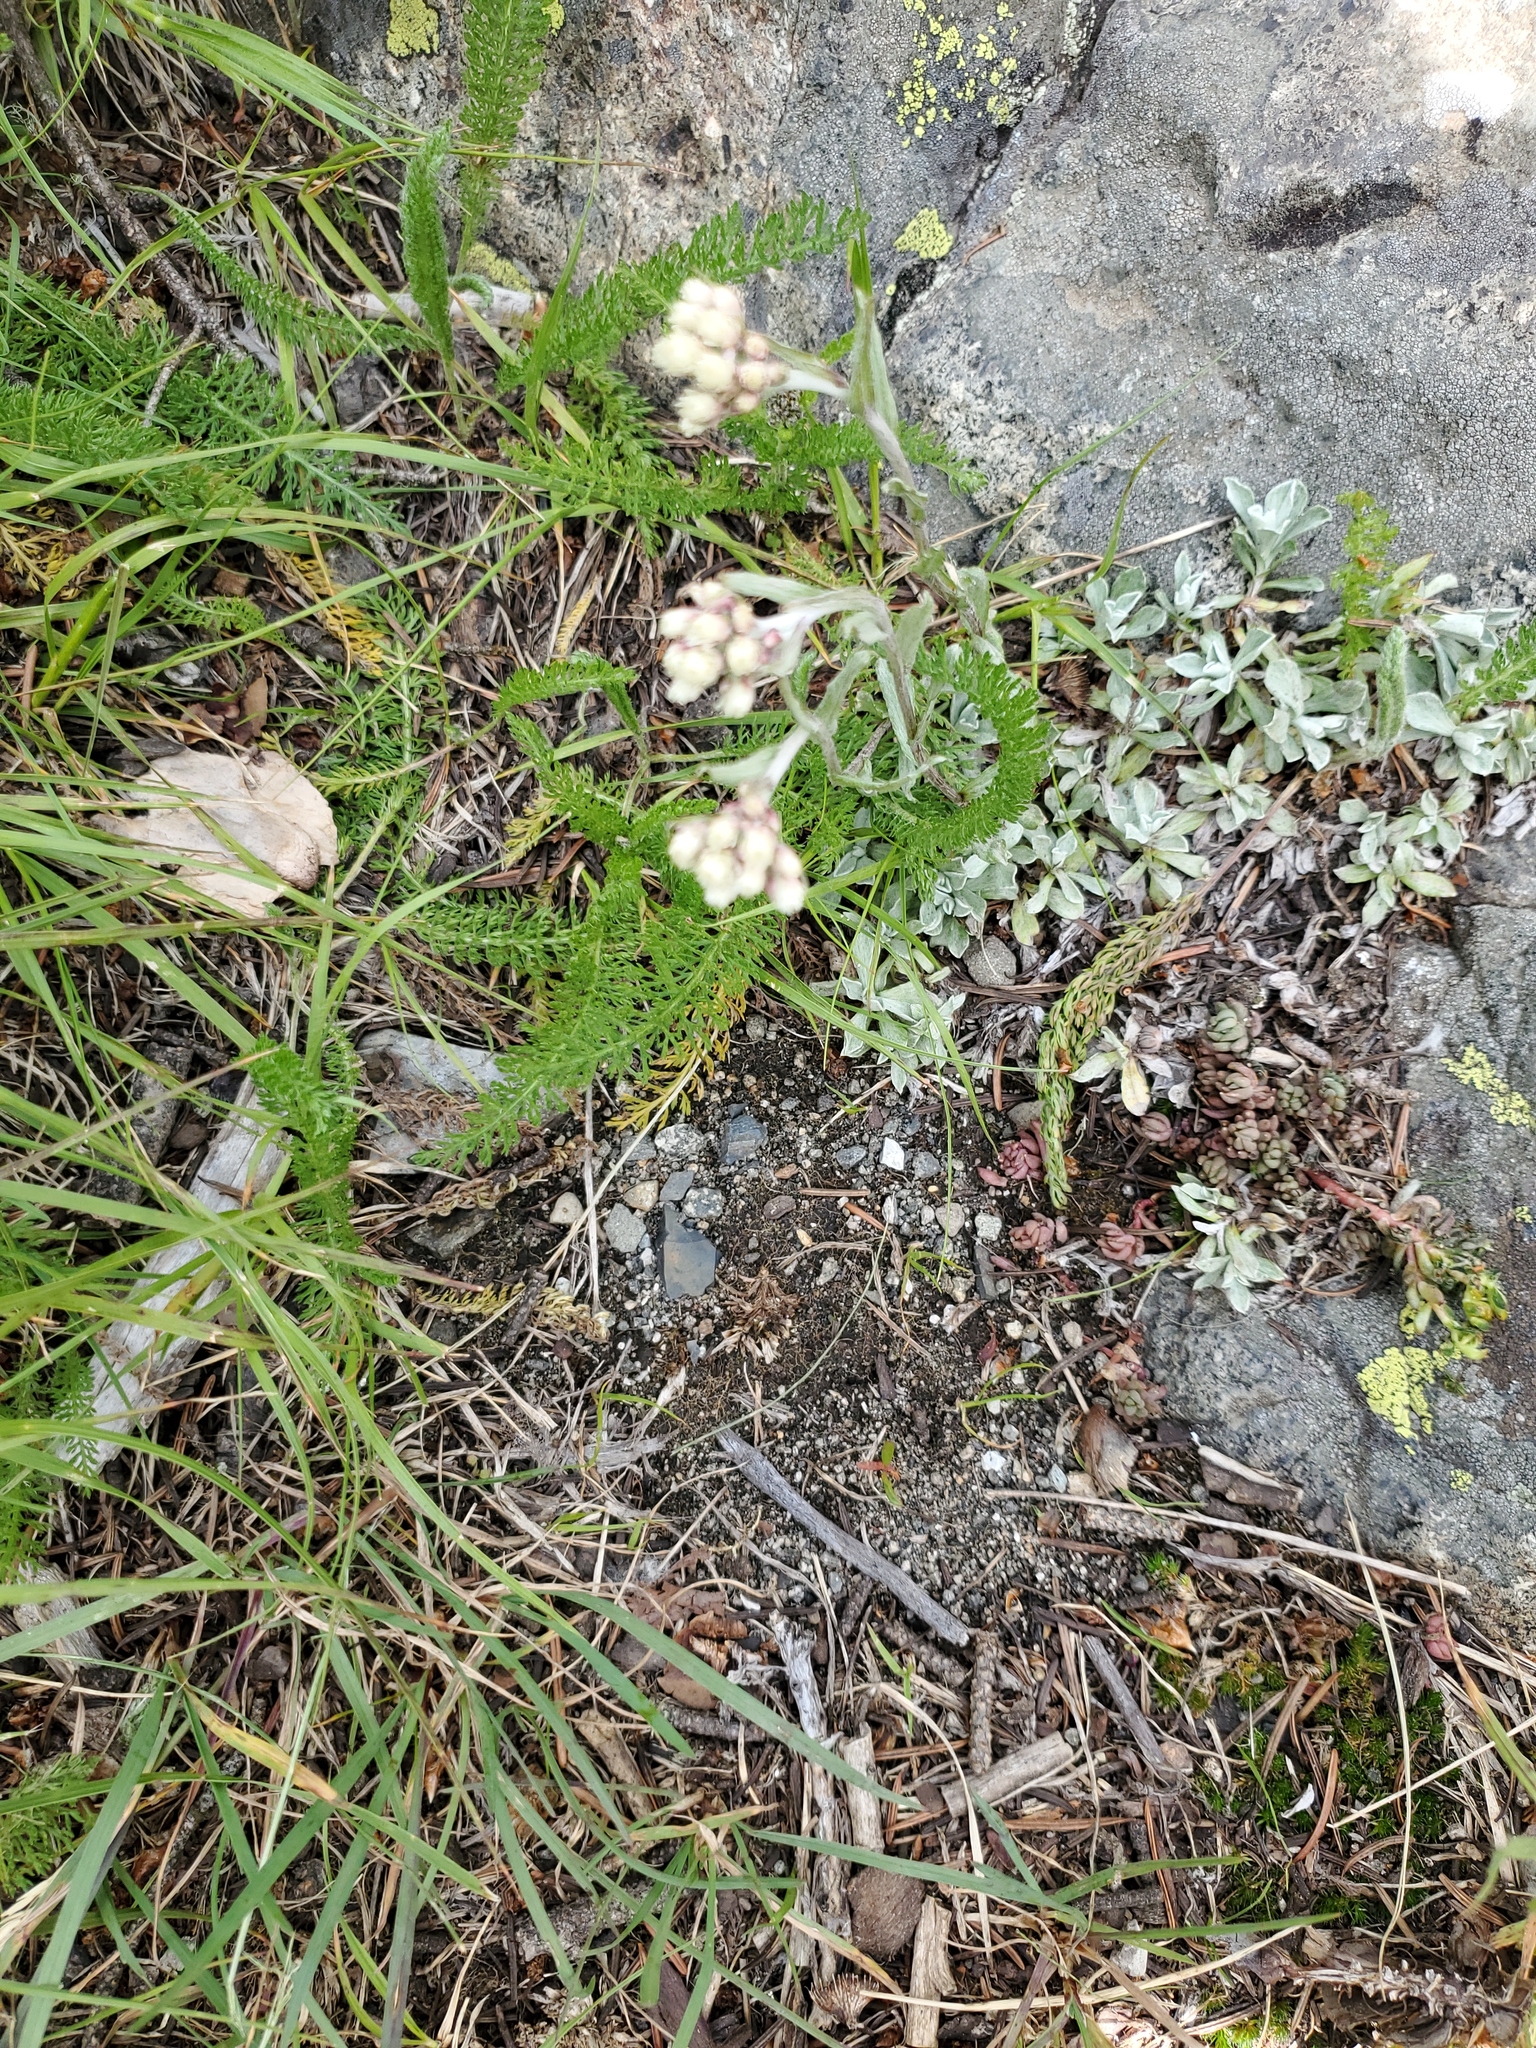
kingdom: Plantae
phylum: Tracheophyta
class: Magnoliopsida
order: Asterales
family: Asteraceae
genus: Antennaria
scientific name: Antennaria rosea
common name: Rosy pussytoes
